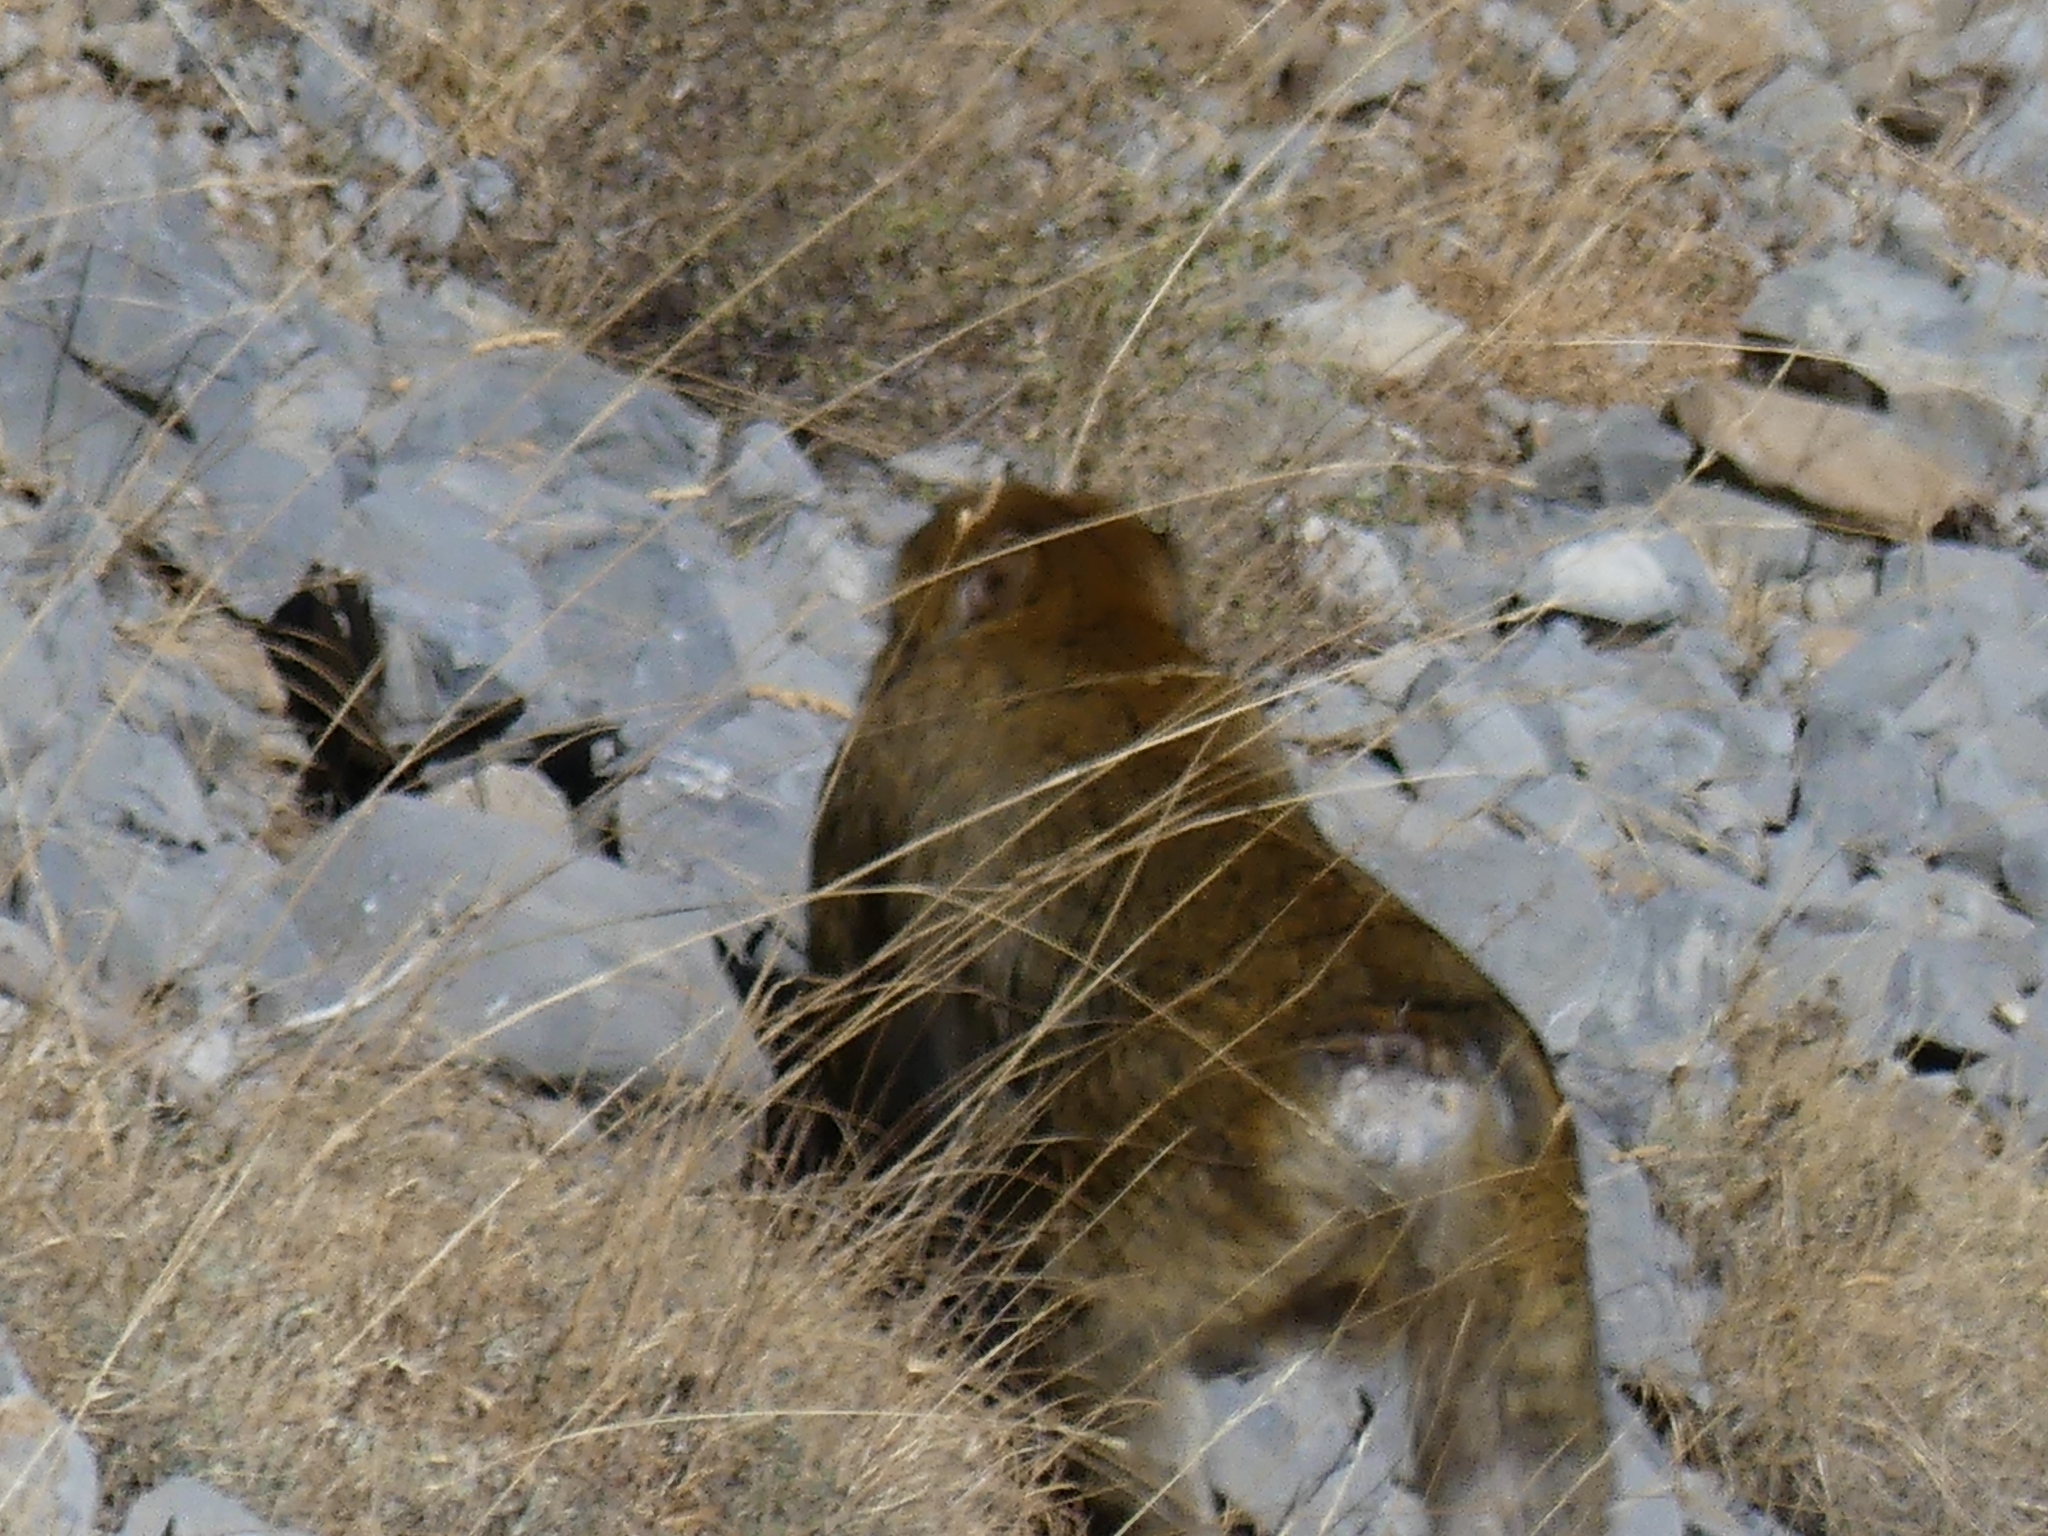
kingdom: Animalia
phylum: Chordata
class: Mammalia
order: Primates
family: Cercopithecidae
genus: Macaca
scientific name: Macaca sylvanus
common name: Barbary macaque
